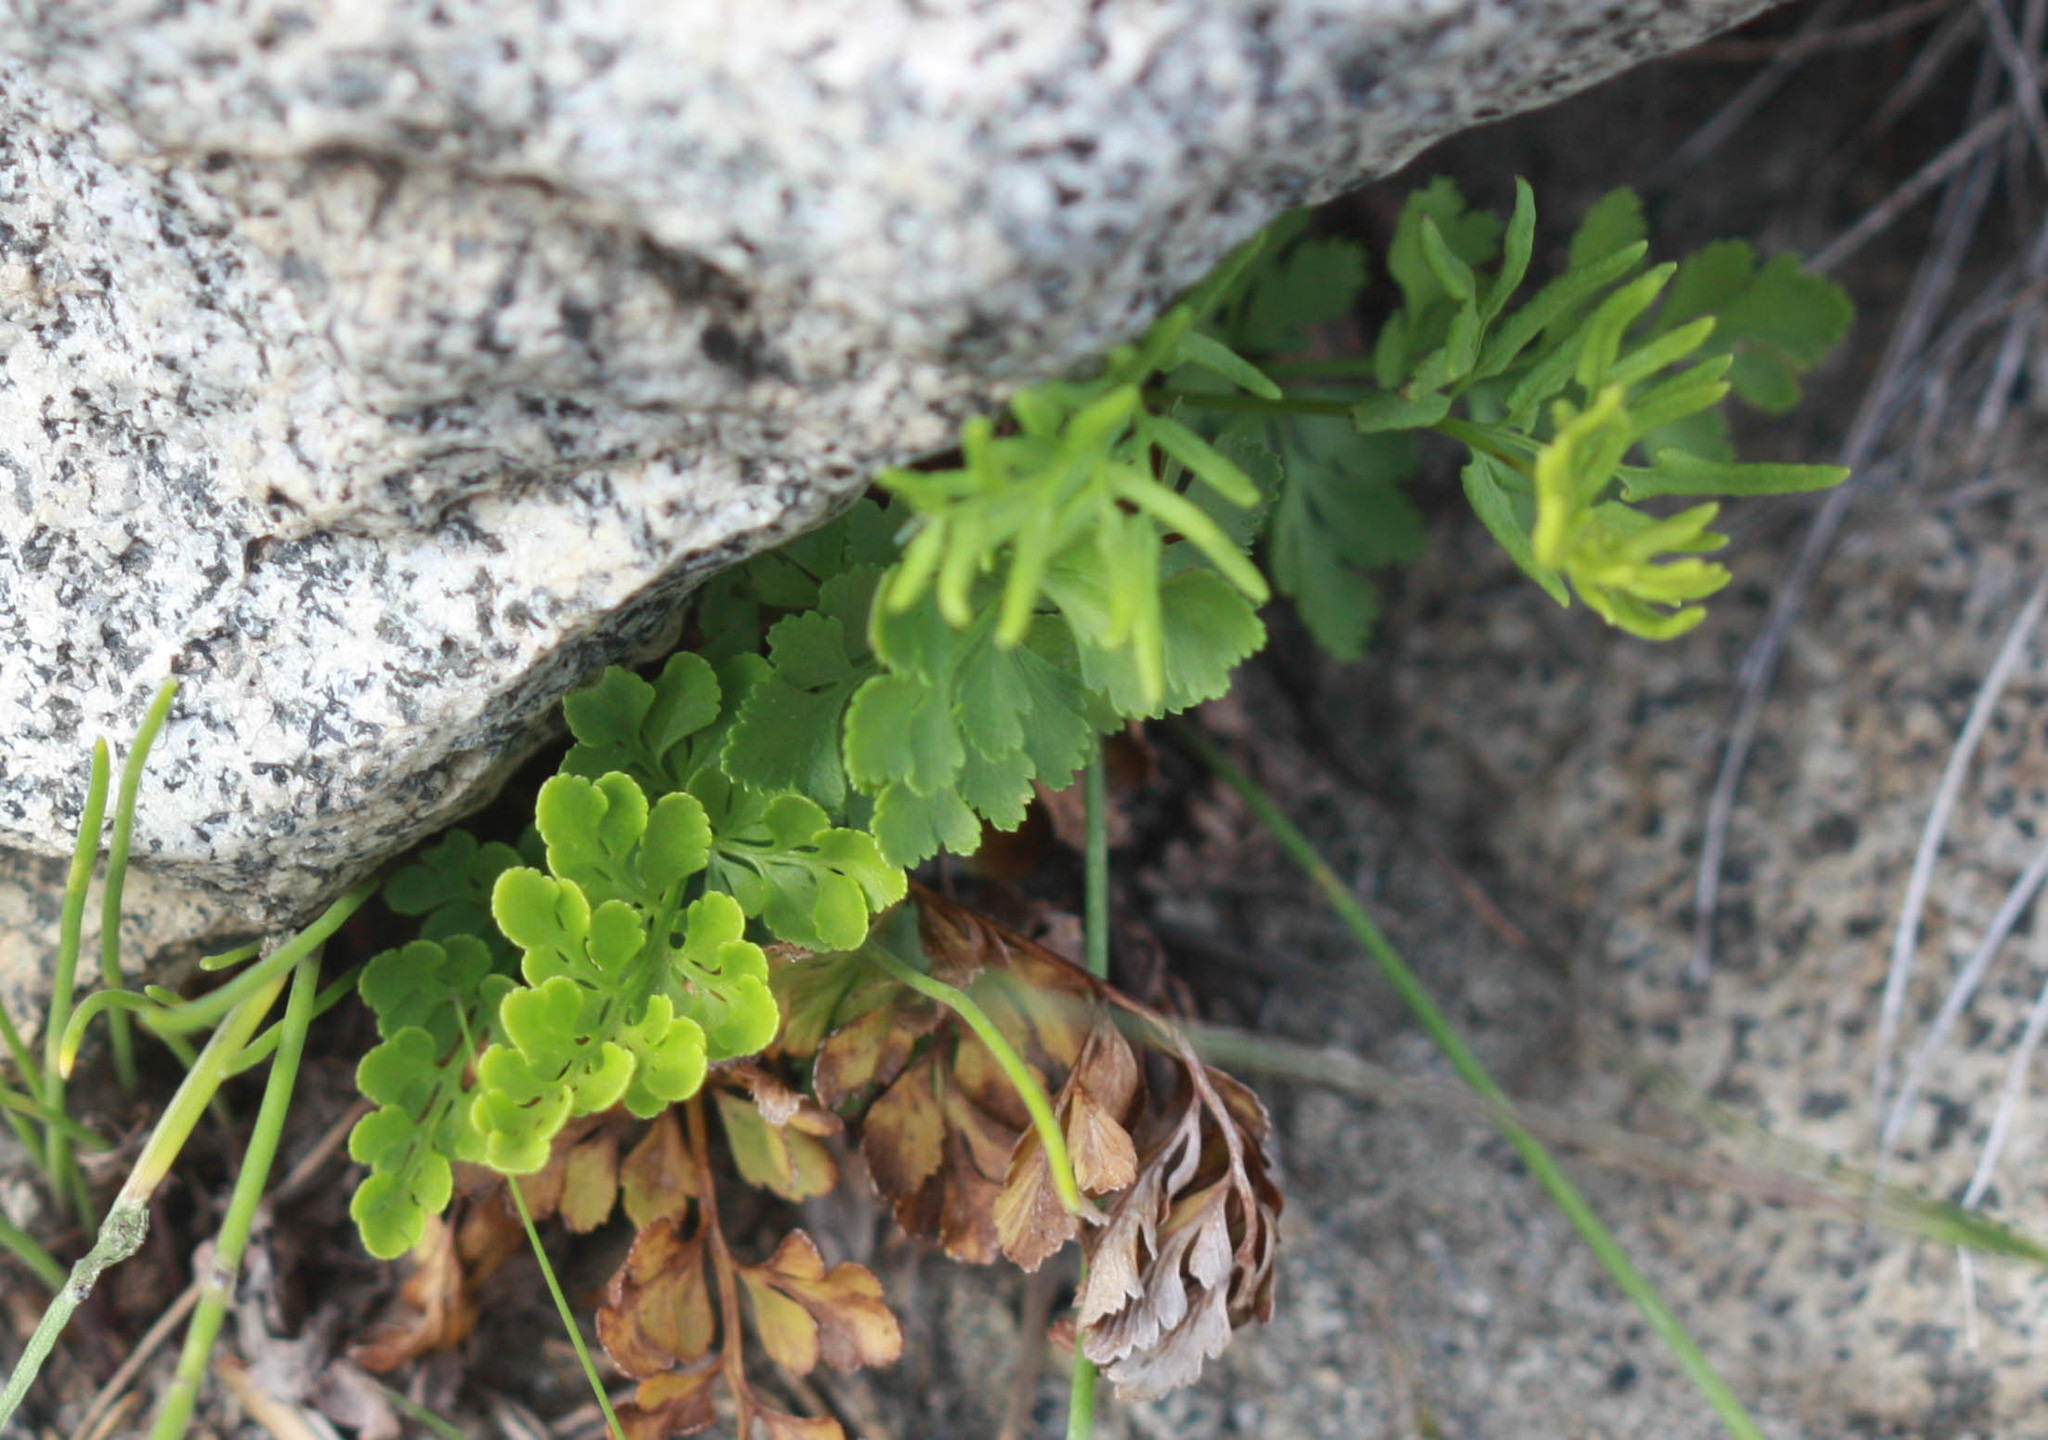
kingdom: Plantae
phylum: Tracheophyta
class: Polypodiopsida
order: Polypodiales
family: Pteridaceae
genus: Cryptogramma
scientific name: Cryptogramma acrostichoides
